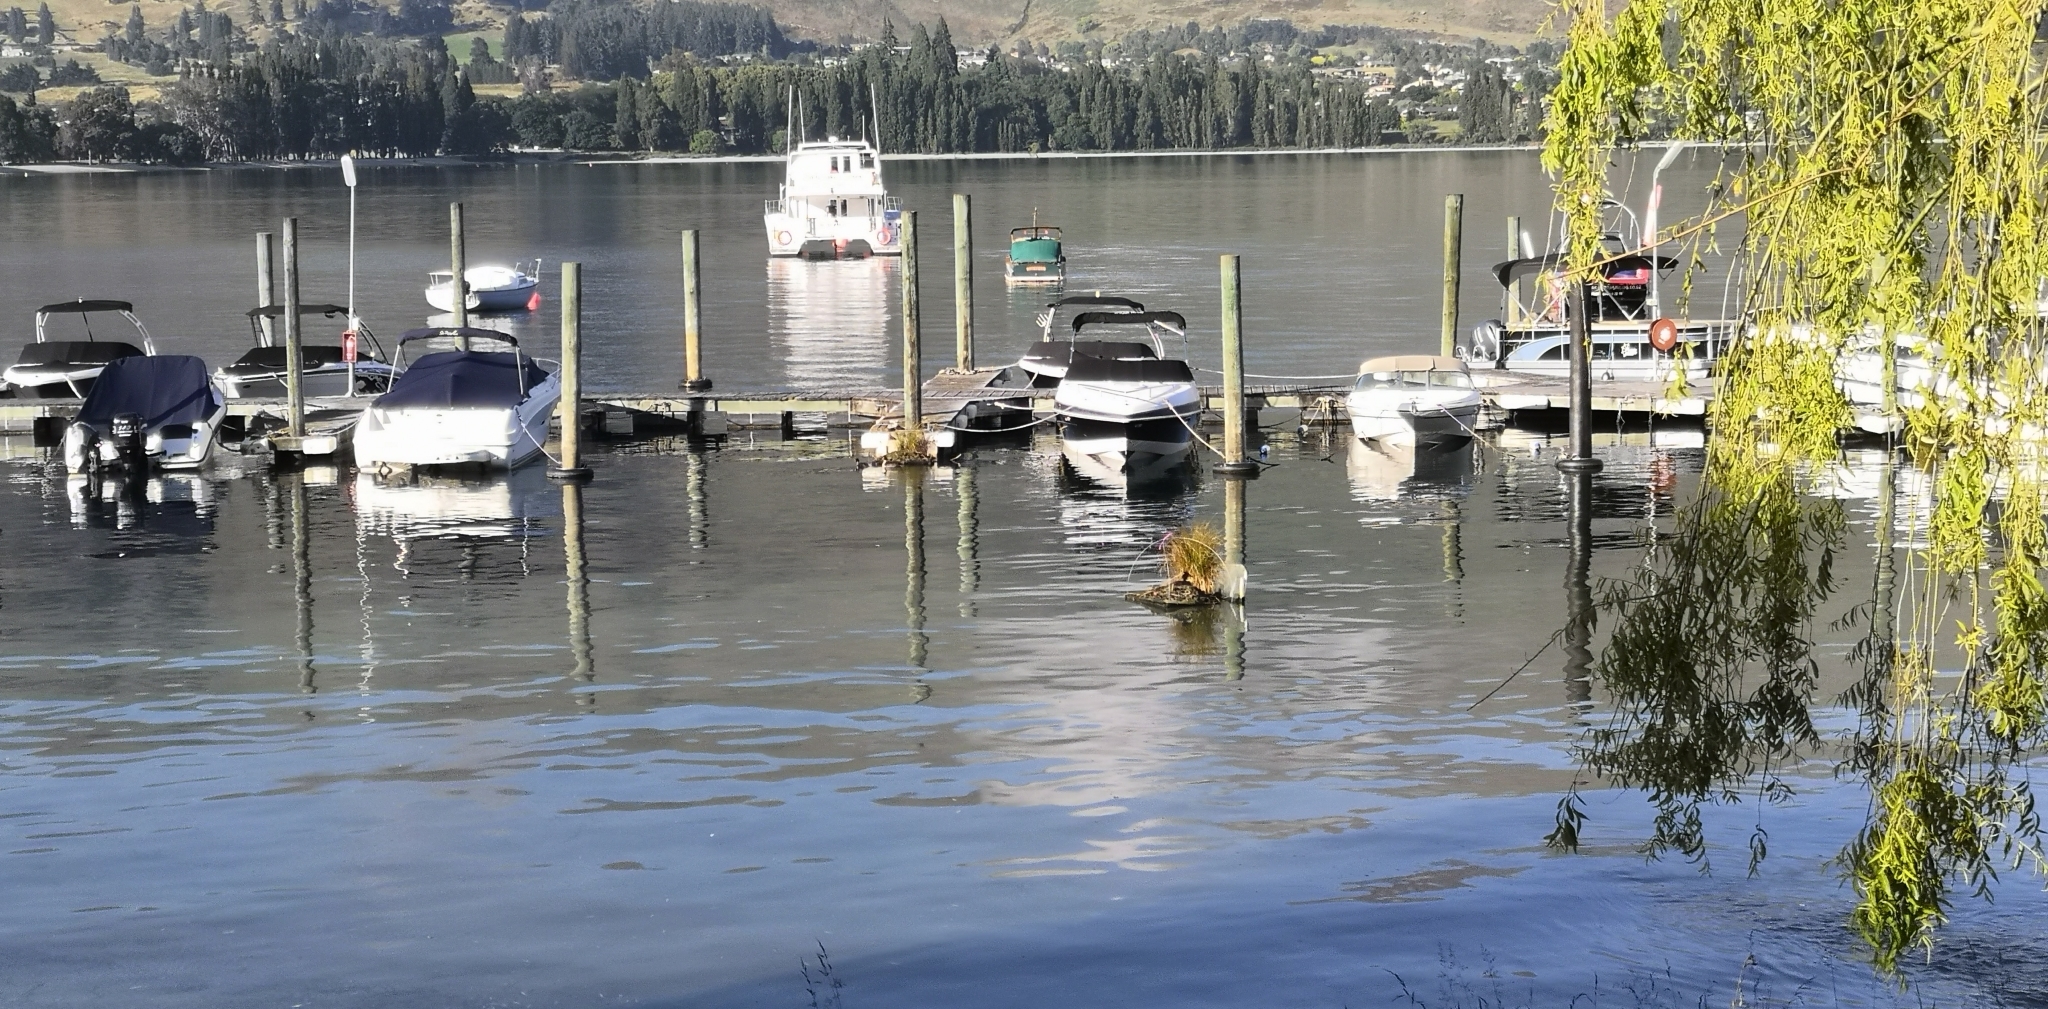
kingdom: Animalia
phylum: Chordata
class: Aves
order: Podicipediformes
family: Podicipedidae
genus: Podiceps
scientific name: Podiceps cristatus
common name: Great crested grebe
